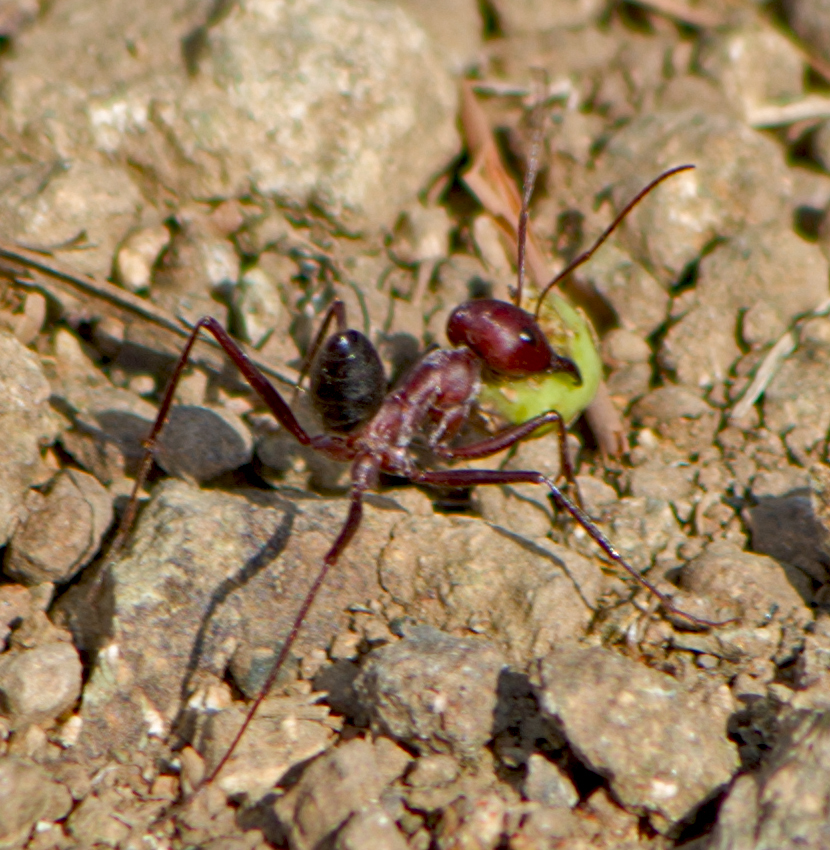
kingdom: Animalia
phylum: Arthropoda
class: Insecta
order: Hymenoptera
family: Formicidae
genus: Cataglyphis
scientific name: Cataglyphis nodus
